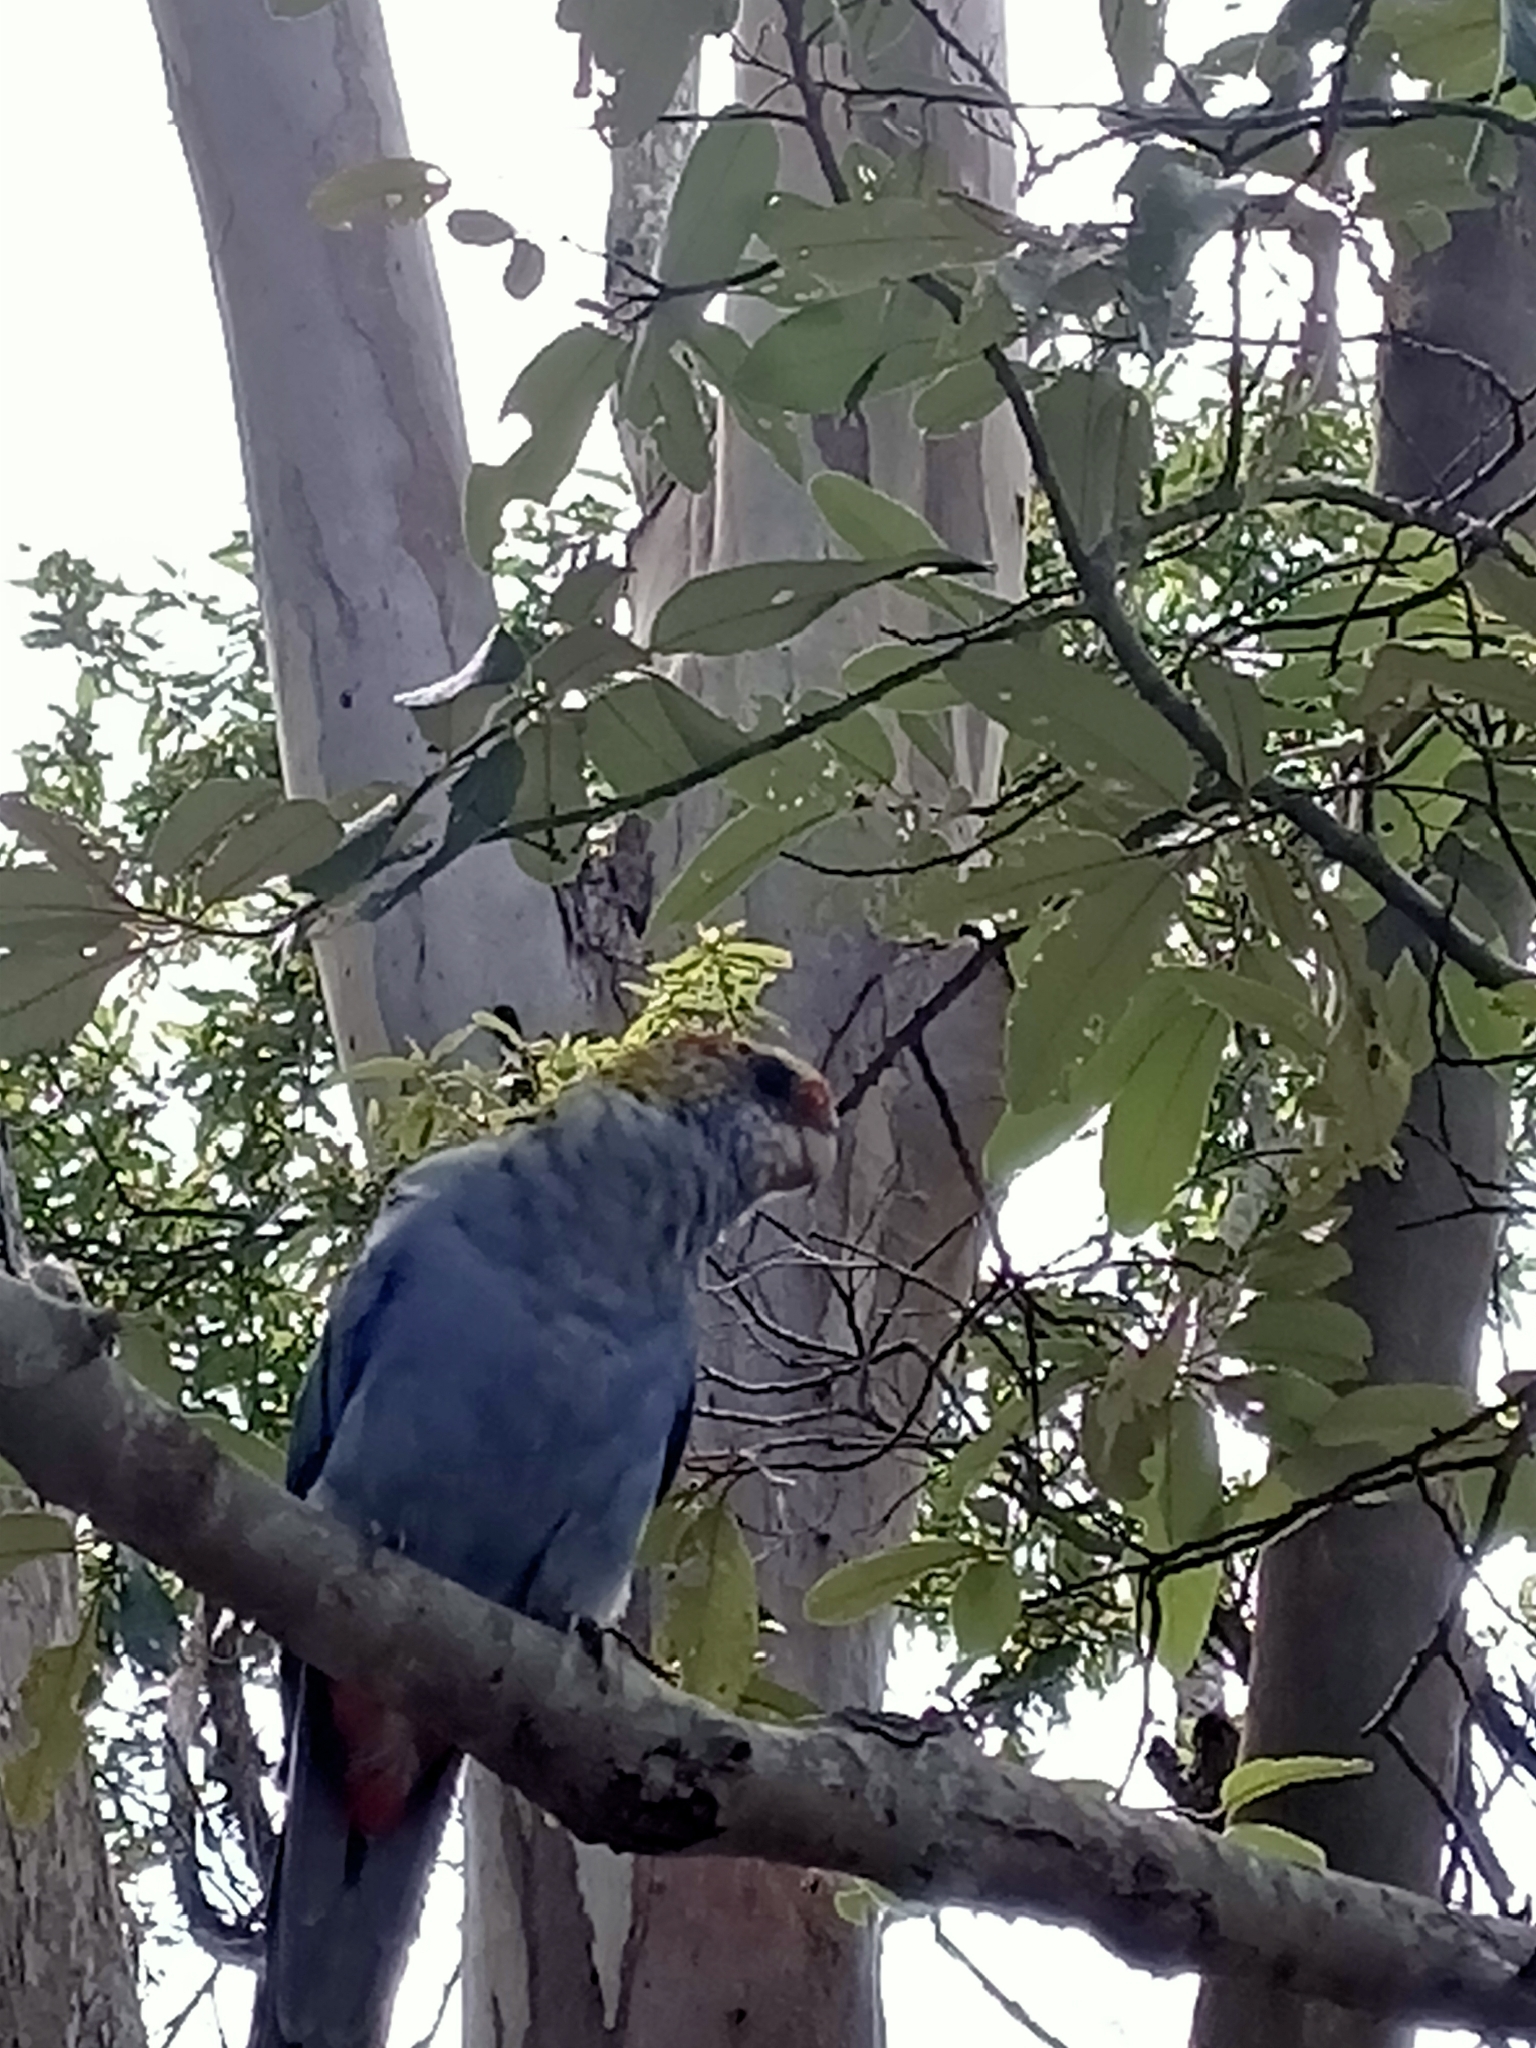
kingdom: Animalia
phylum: Chordata
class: Aves
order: Psittaciformes
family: Psittacidae
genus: Platycercus
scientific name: Platycercus adscitus
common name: Pale-headed rosella
